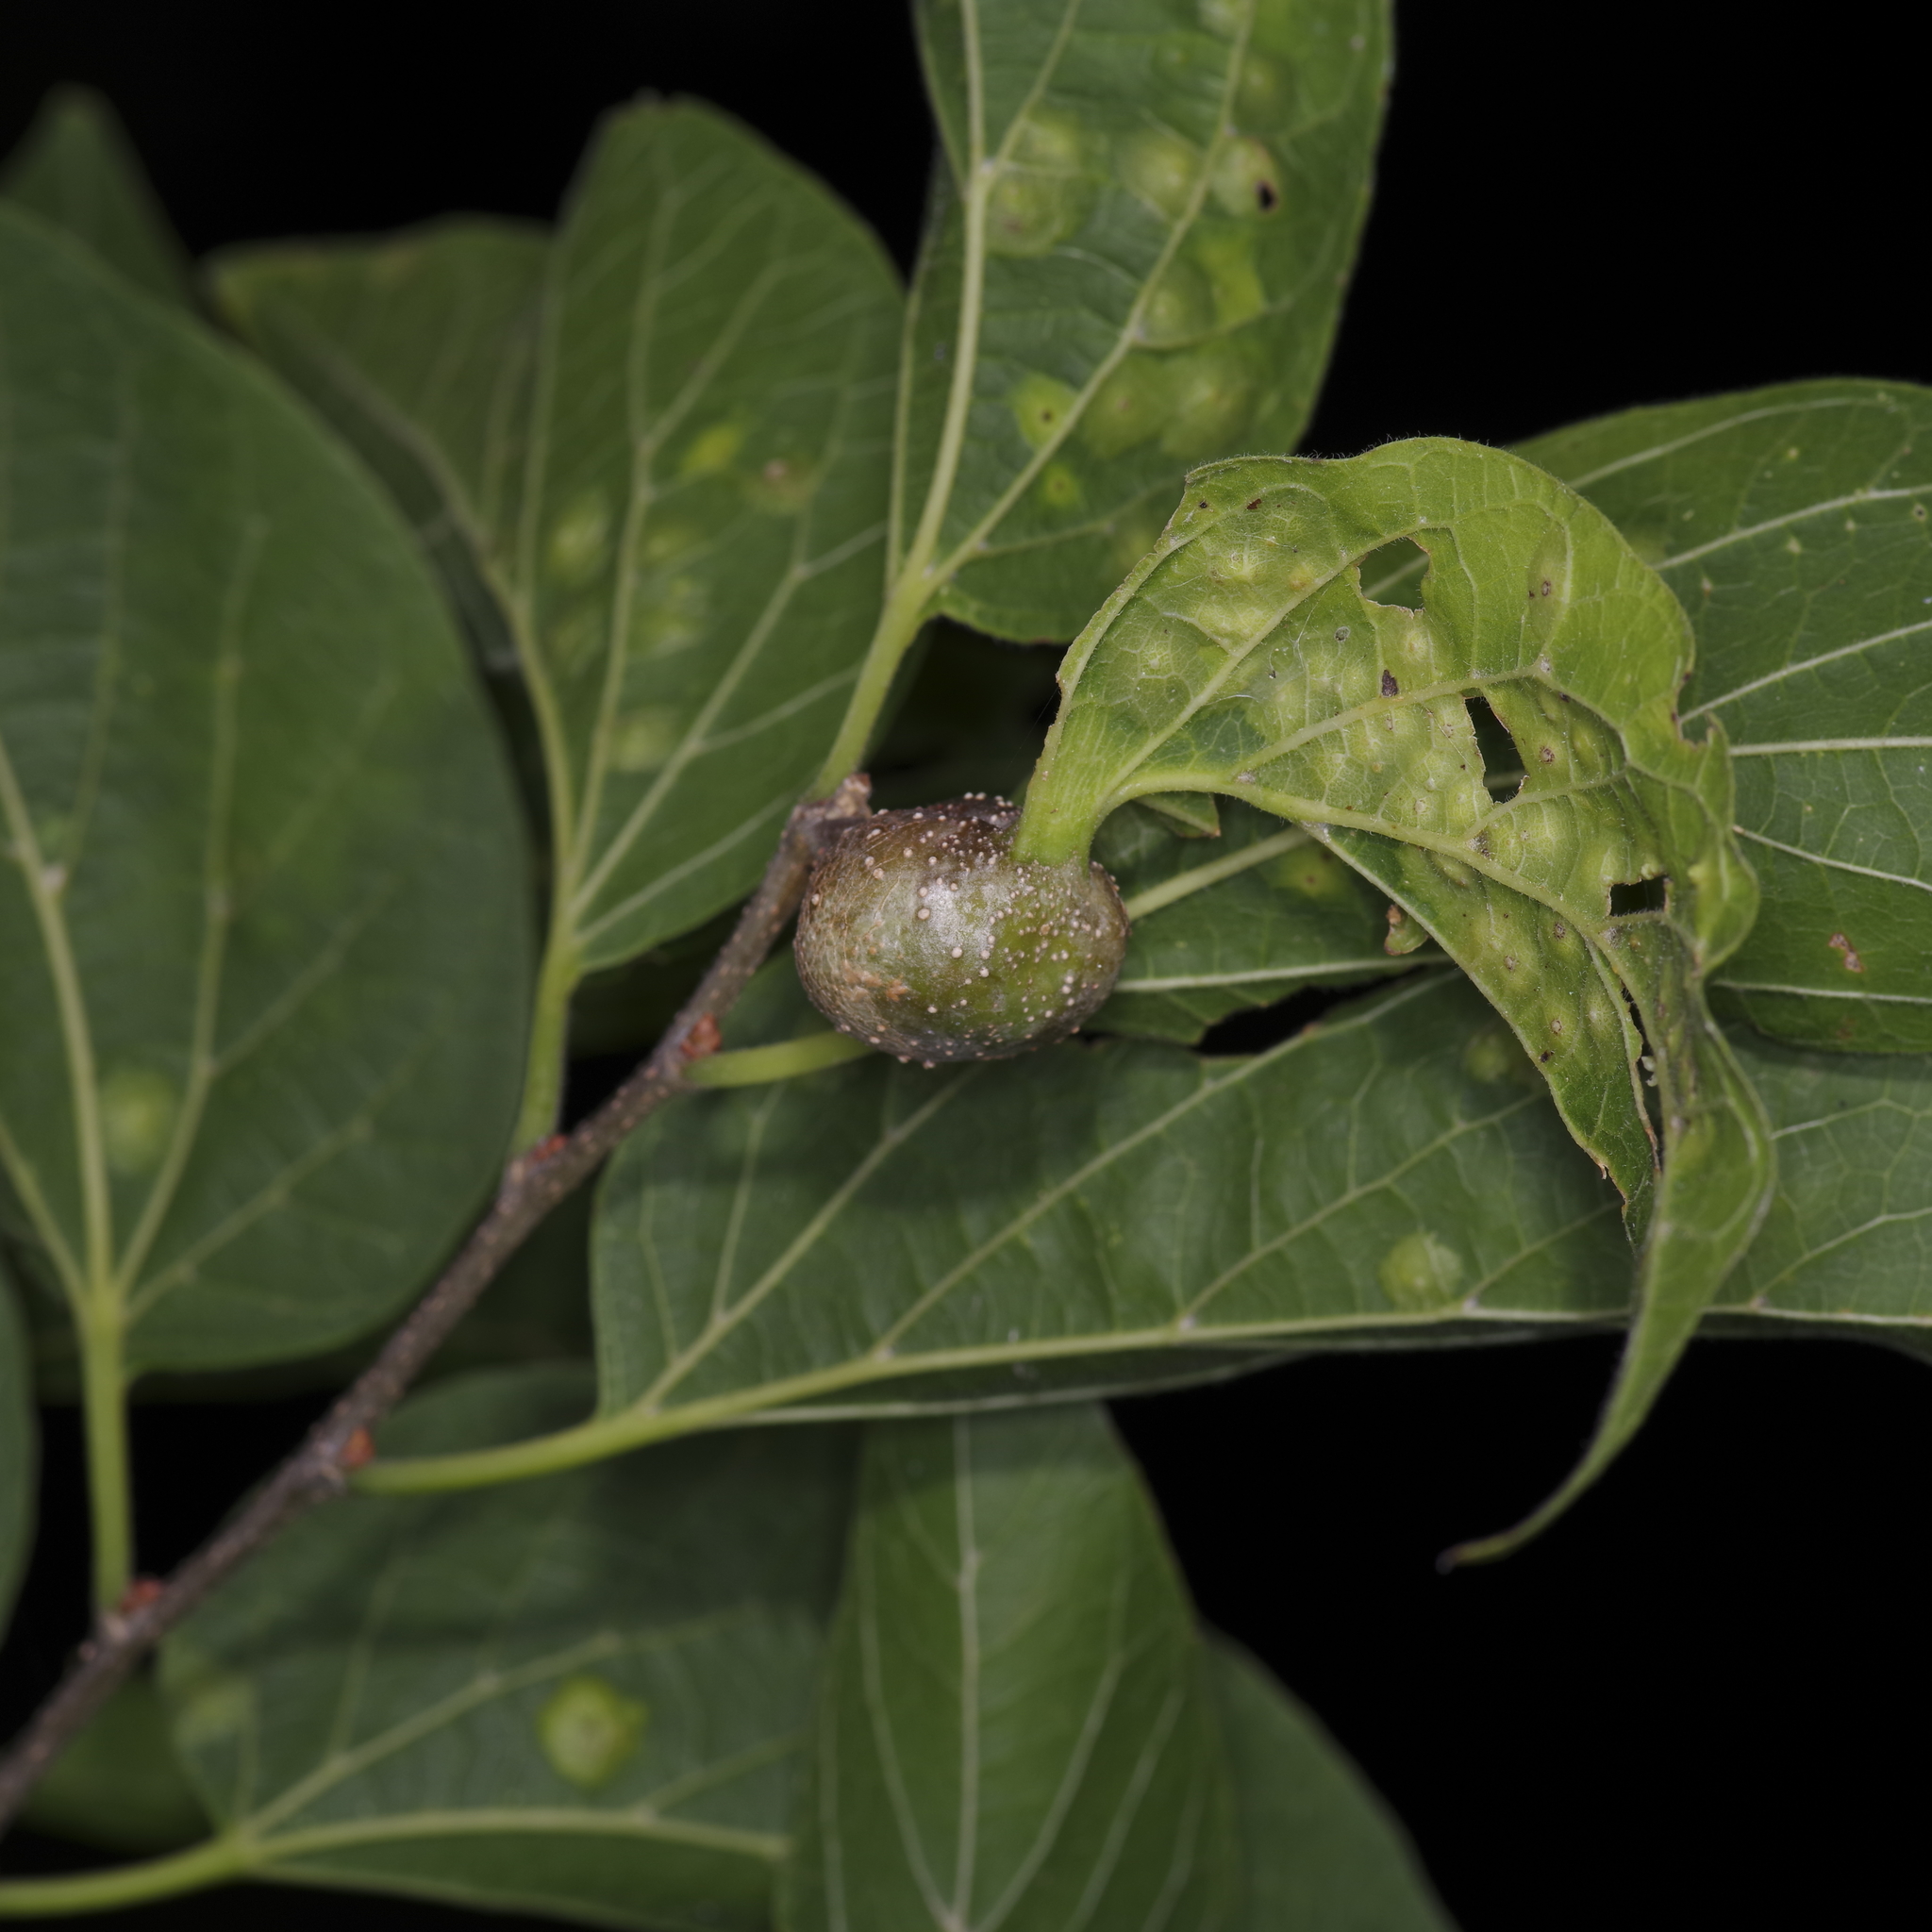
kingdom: Animalia
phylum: Arthropoda
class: Insecta
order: Hemiptera
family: Aphalaridae
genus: Pachypsylla
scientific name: Pachypsylla venusta
